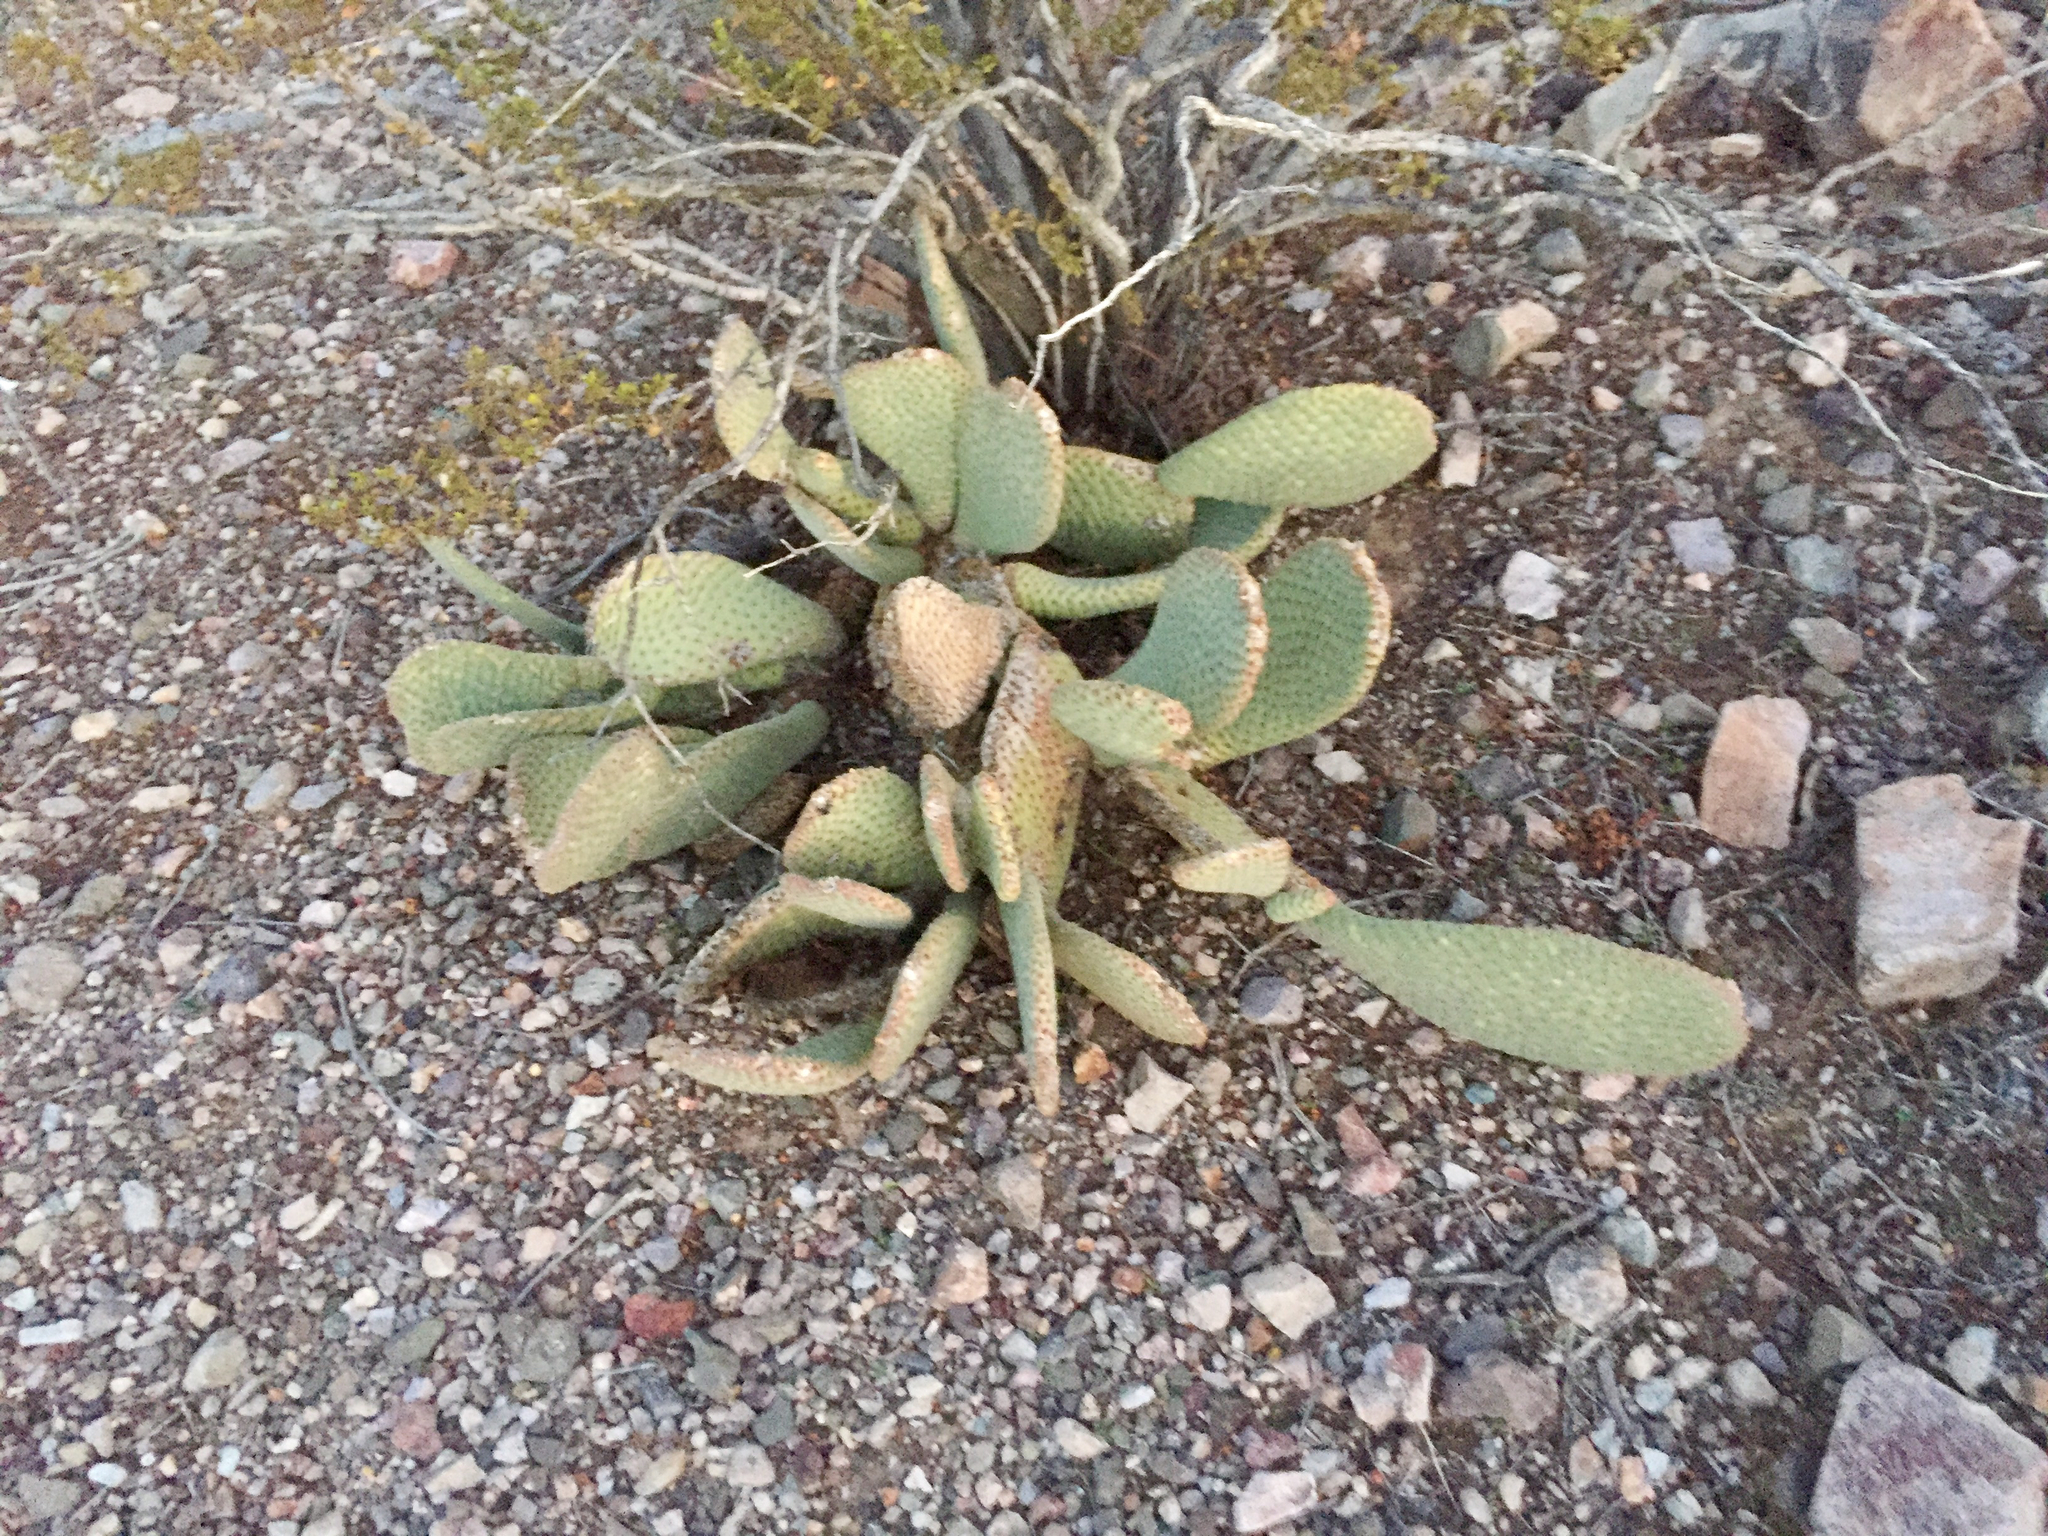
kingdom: Plantae
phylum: Tracheophyta
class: Magnoliopsida
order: Caryophyllales
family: Cactaceae
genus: Opuntia
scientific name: Opuntia basilaris
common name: Beavertail prickly-pear
